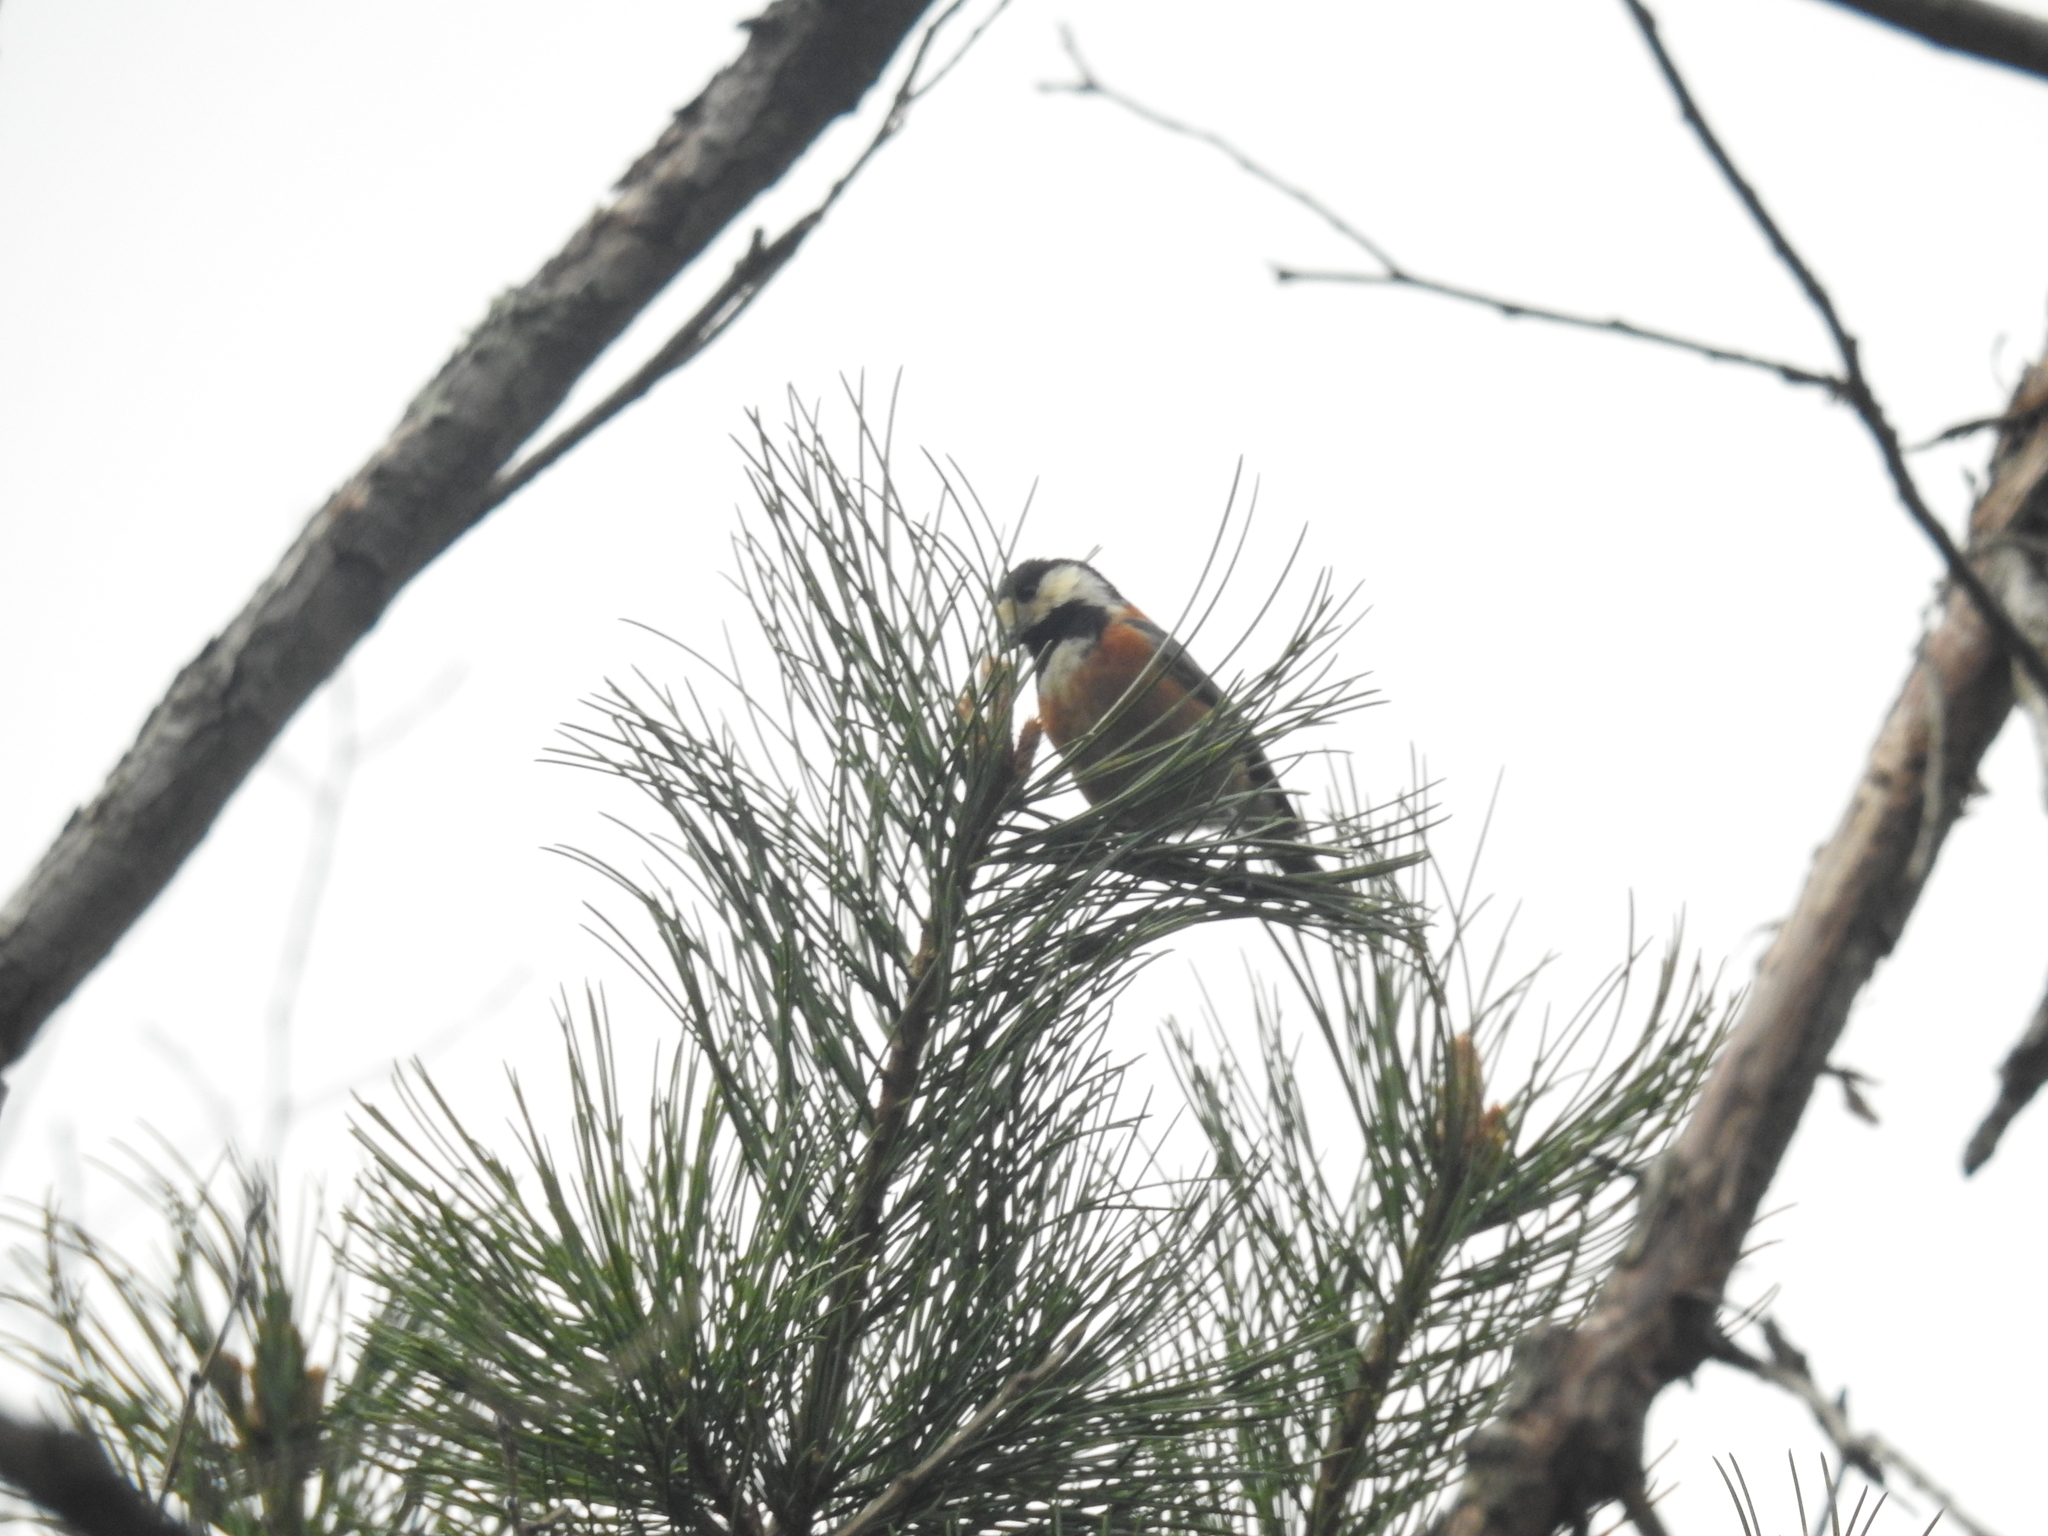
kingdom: Animalia
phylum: Chordata
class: Aves
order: Passeriformes
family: Paridae
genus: Poecile
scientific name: Poecile varius
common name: Varied tit
